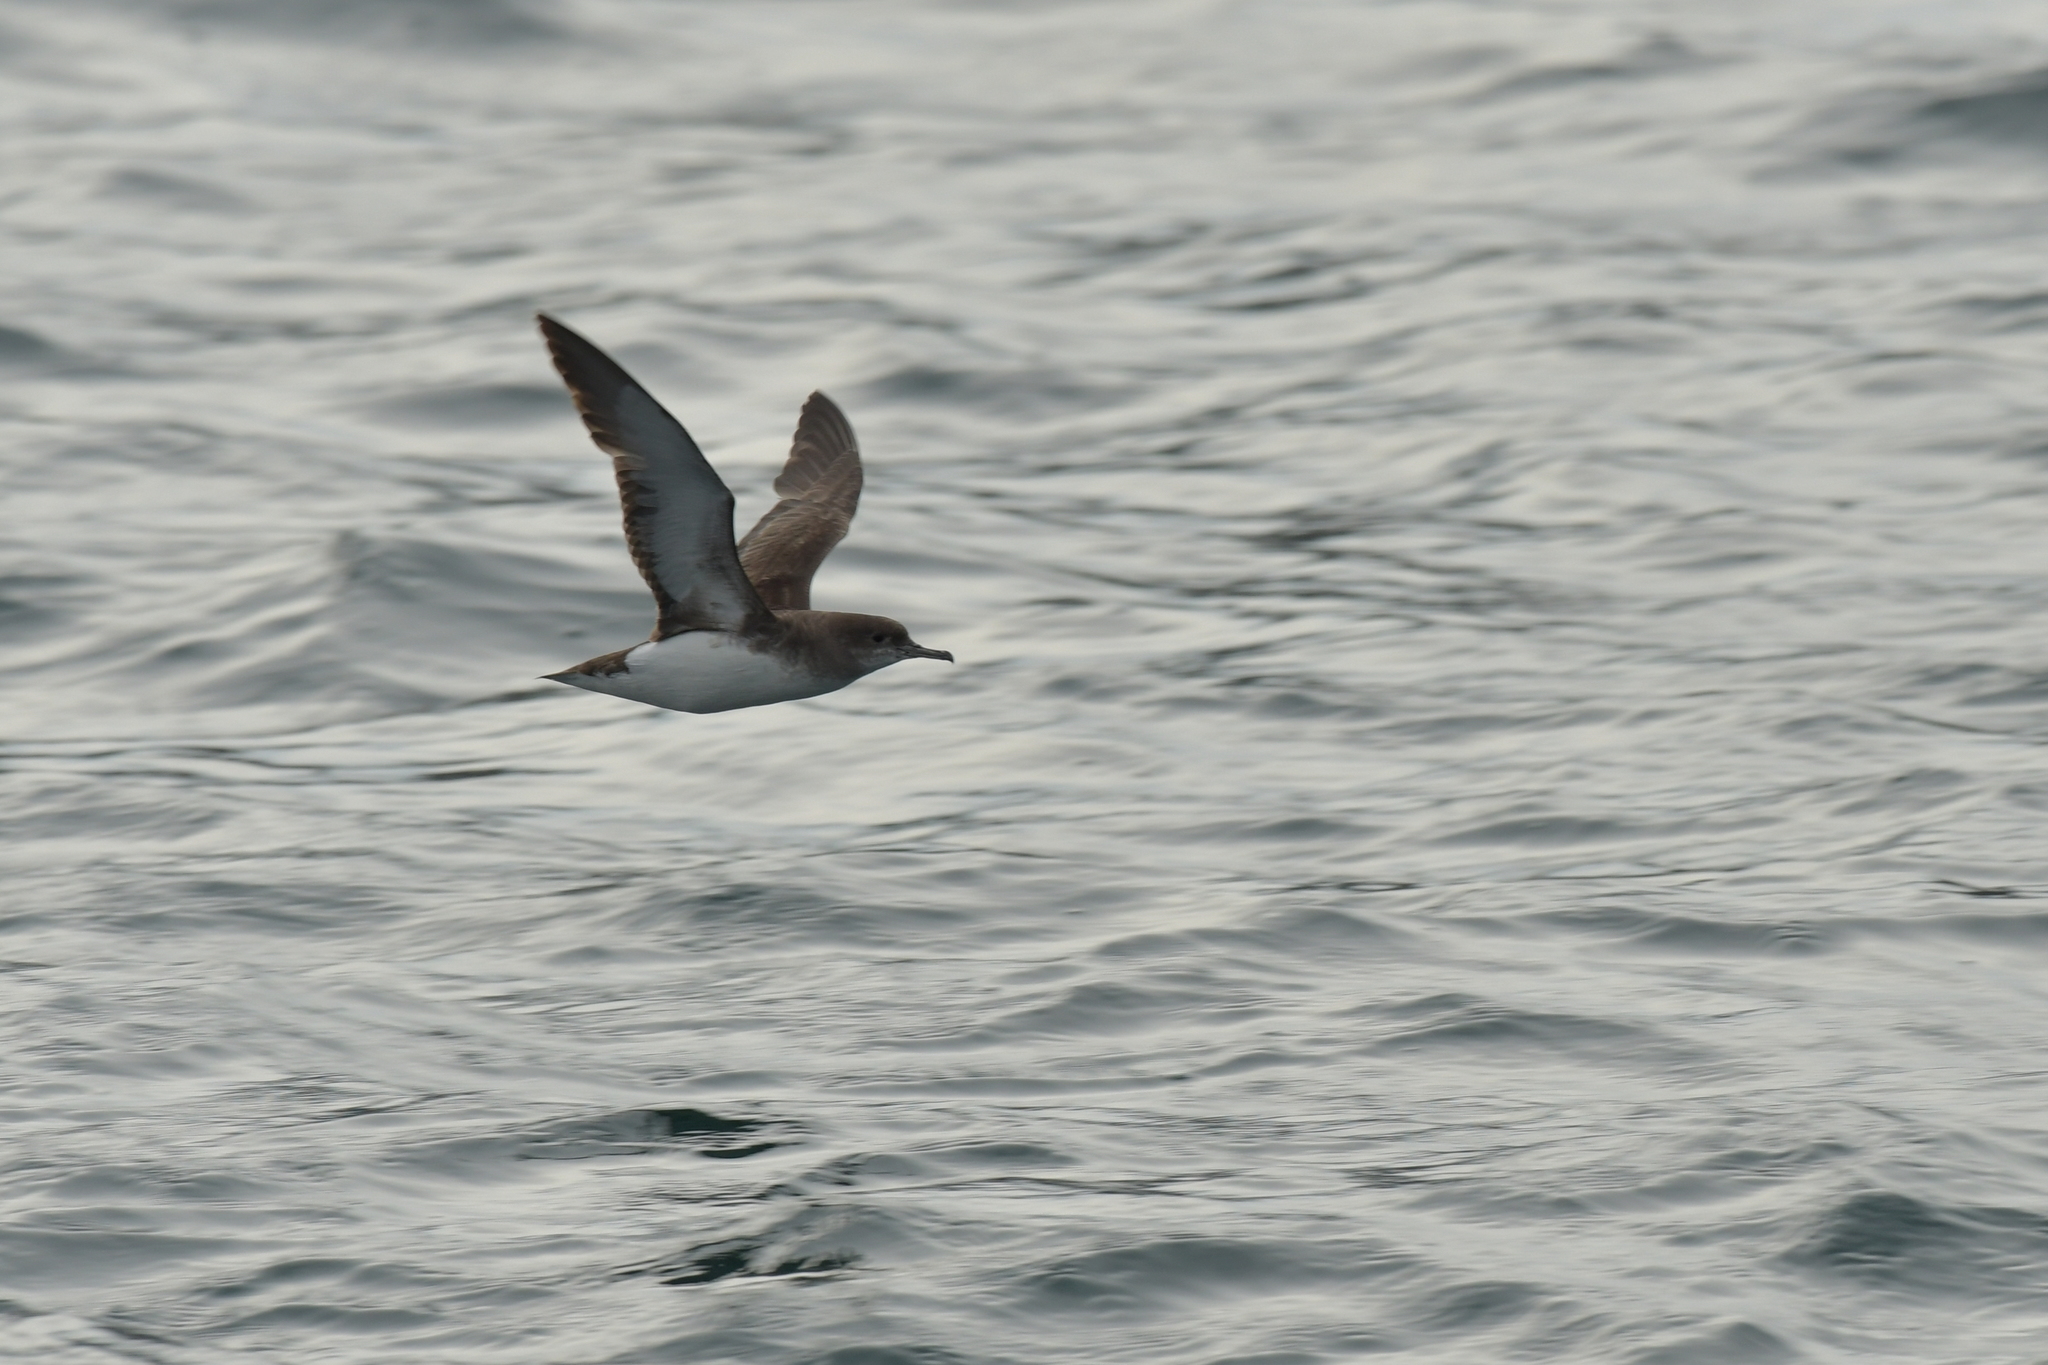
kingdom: Animalia
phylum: Chordata
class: Aves
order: Procellariiformes
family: Procellariidae
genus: Puffinus
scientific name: Puffinus gavia
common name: Fluttering shearwater
